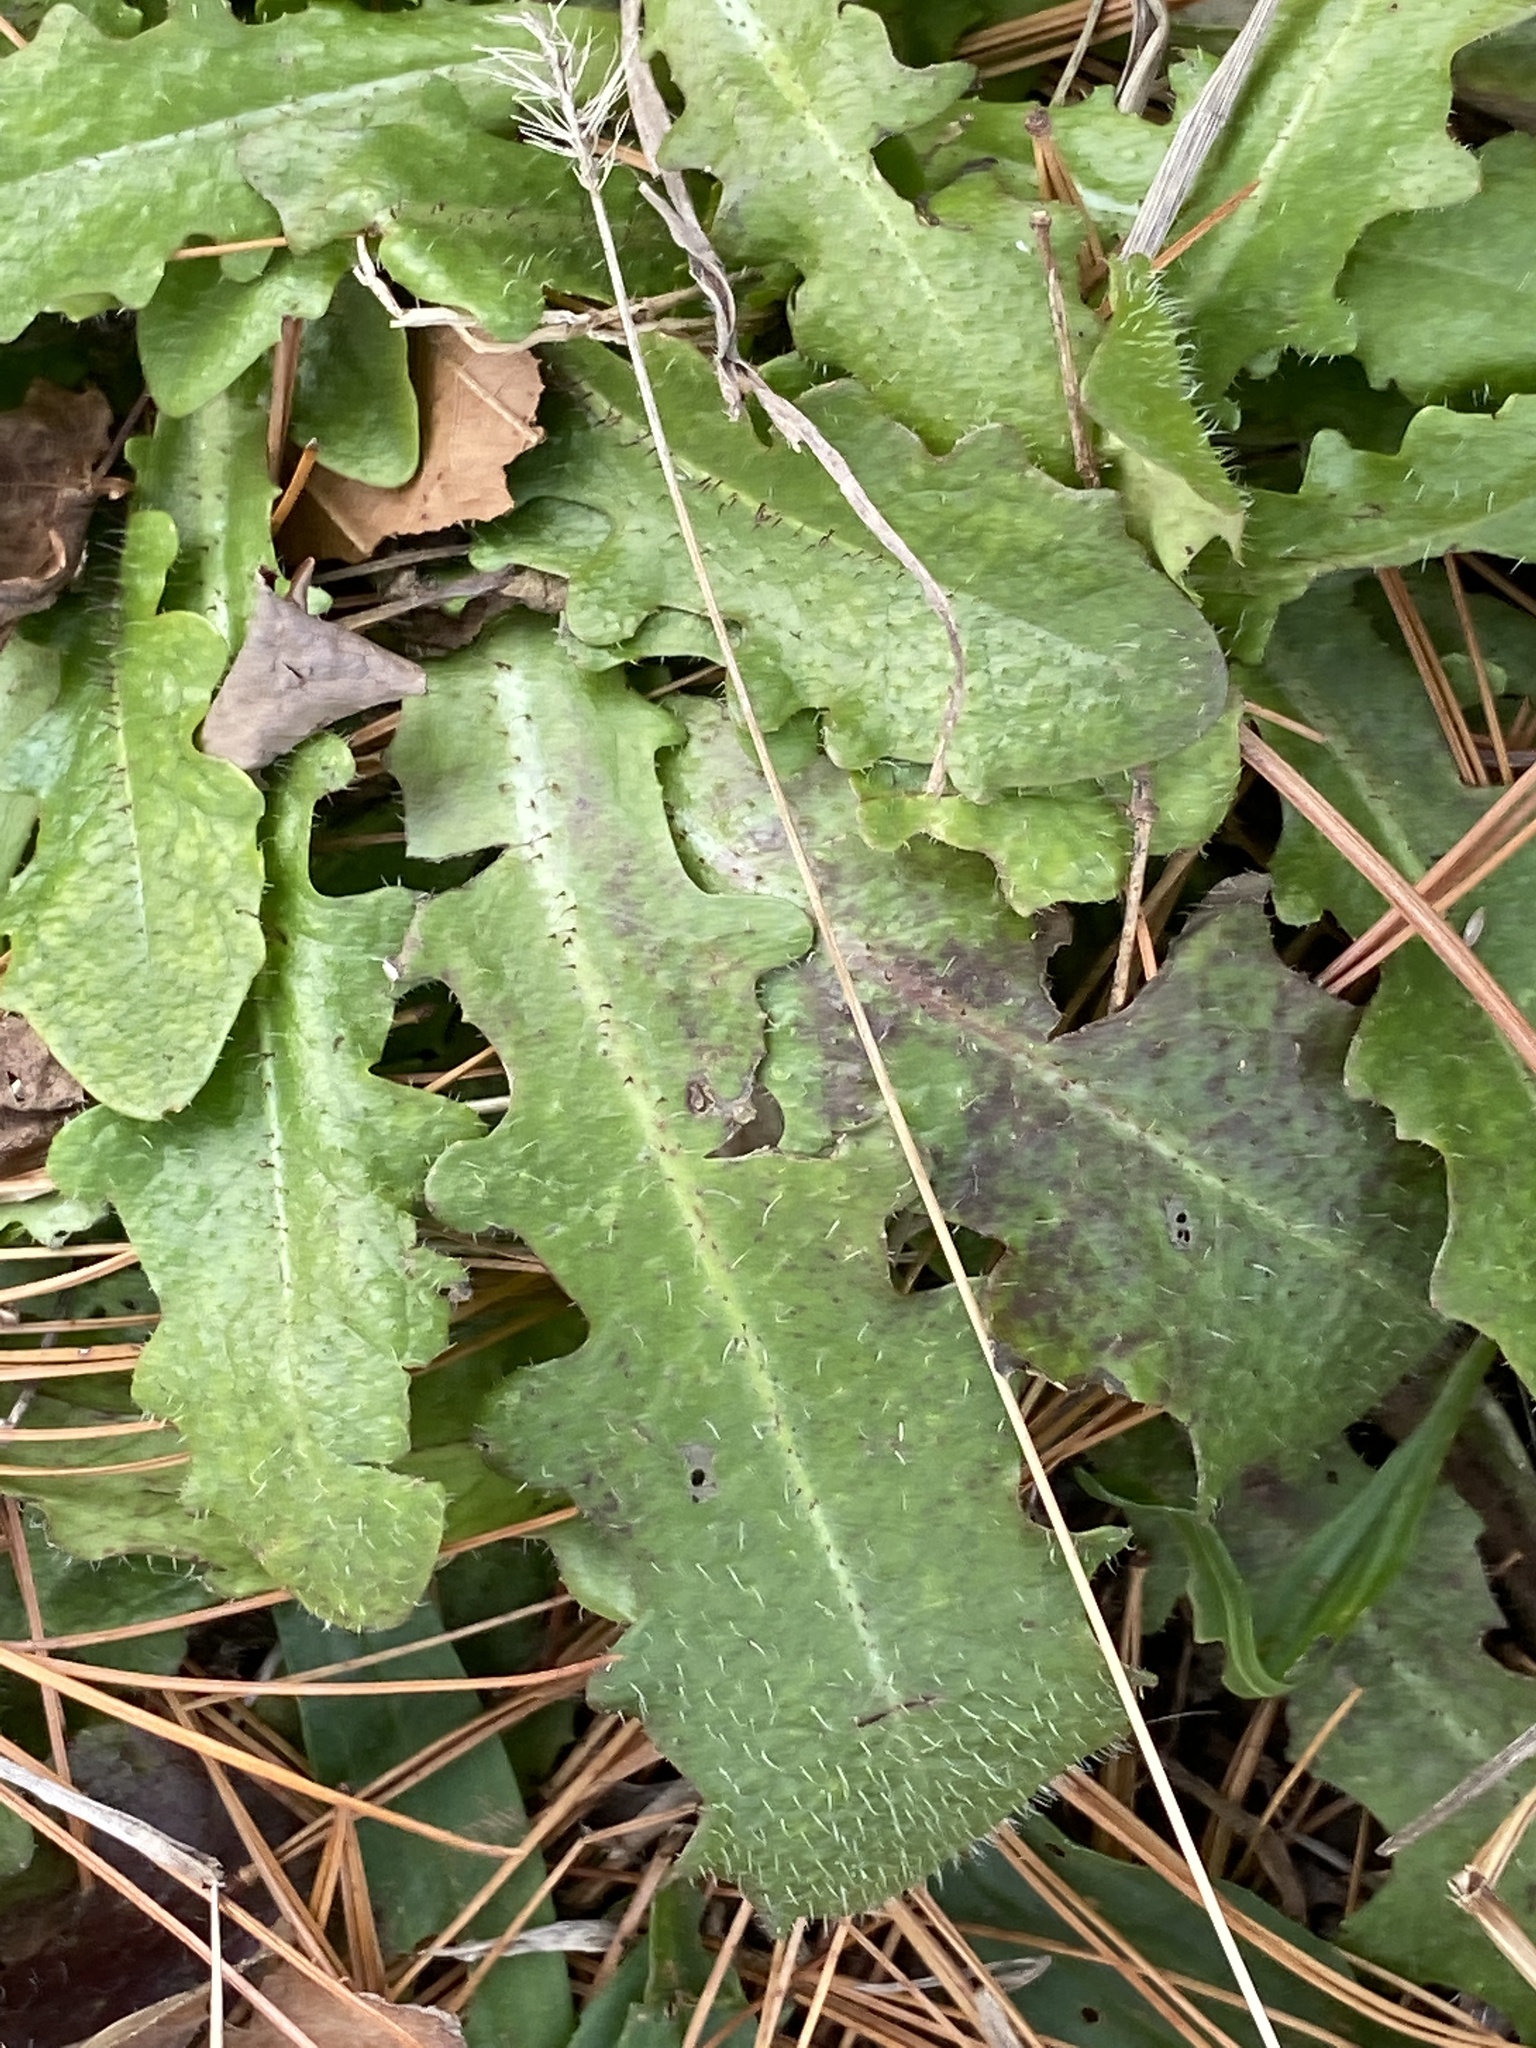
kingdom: Plantae
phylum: Tracheophyta
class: Magnoliopsida
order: Asterales
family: Asteraceae
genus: Hypochaeris
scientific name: Hypochaeris radicata
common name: Flatweed
